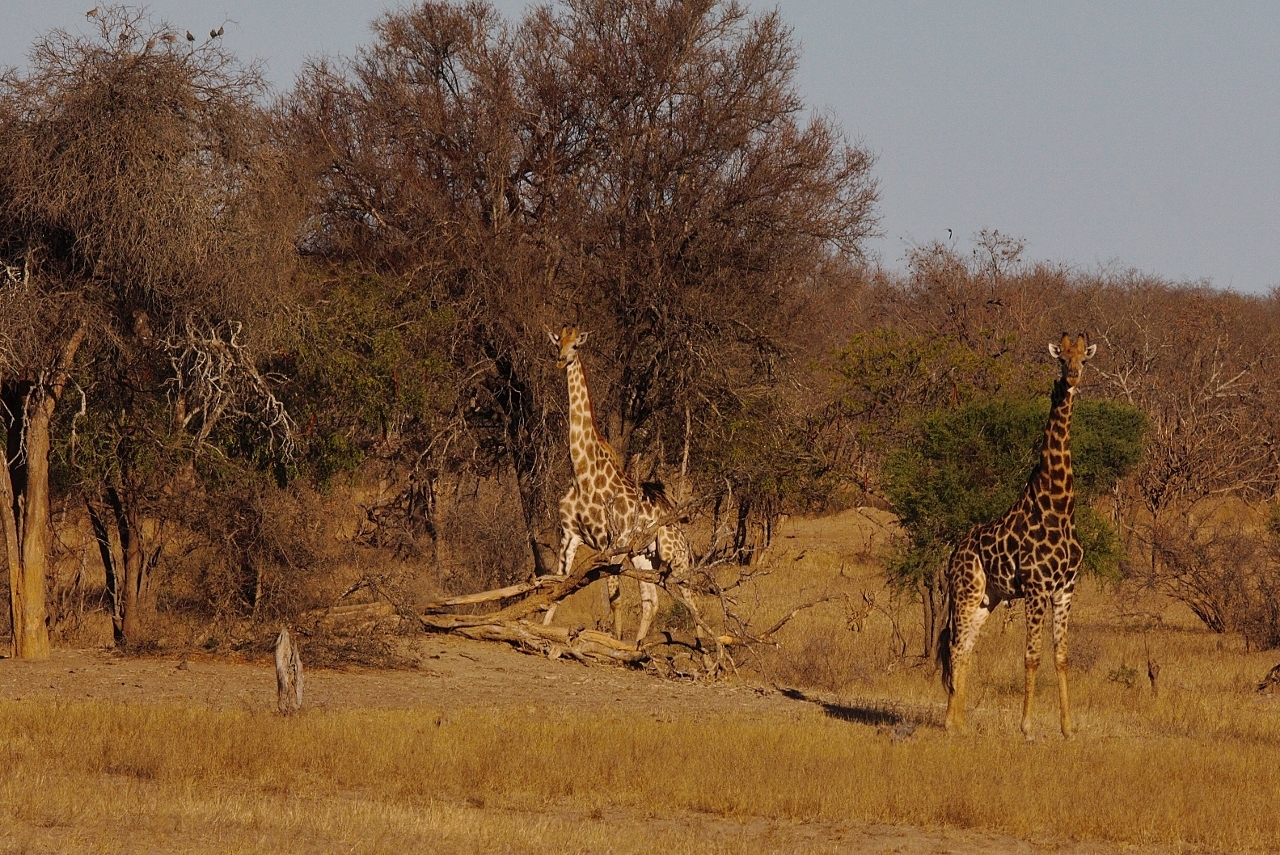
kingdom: Animalia
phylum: Chordata
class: Mammalia
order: Artiodactyla
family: Giraffidae
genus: Giraffa
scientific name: Giraffa giraffa
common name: Southern giraffe
